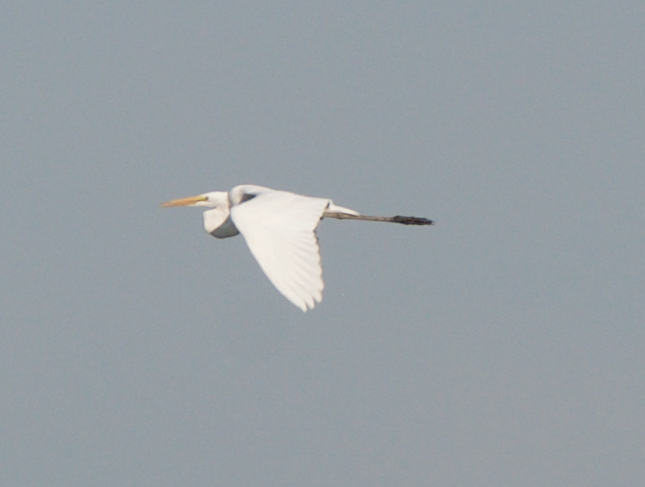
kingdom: Animalia
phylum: Chordata
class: Aves
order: Pelecaniformes
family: Ardeidae
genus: Ardea
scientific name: Ardea alba
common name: Great egret
